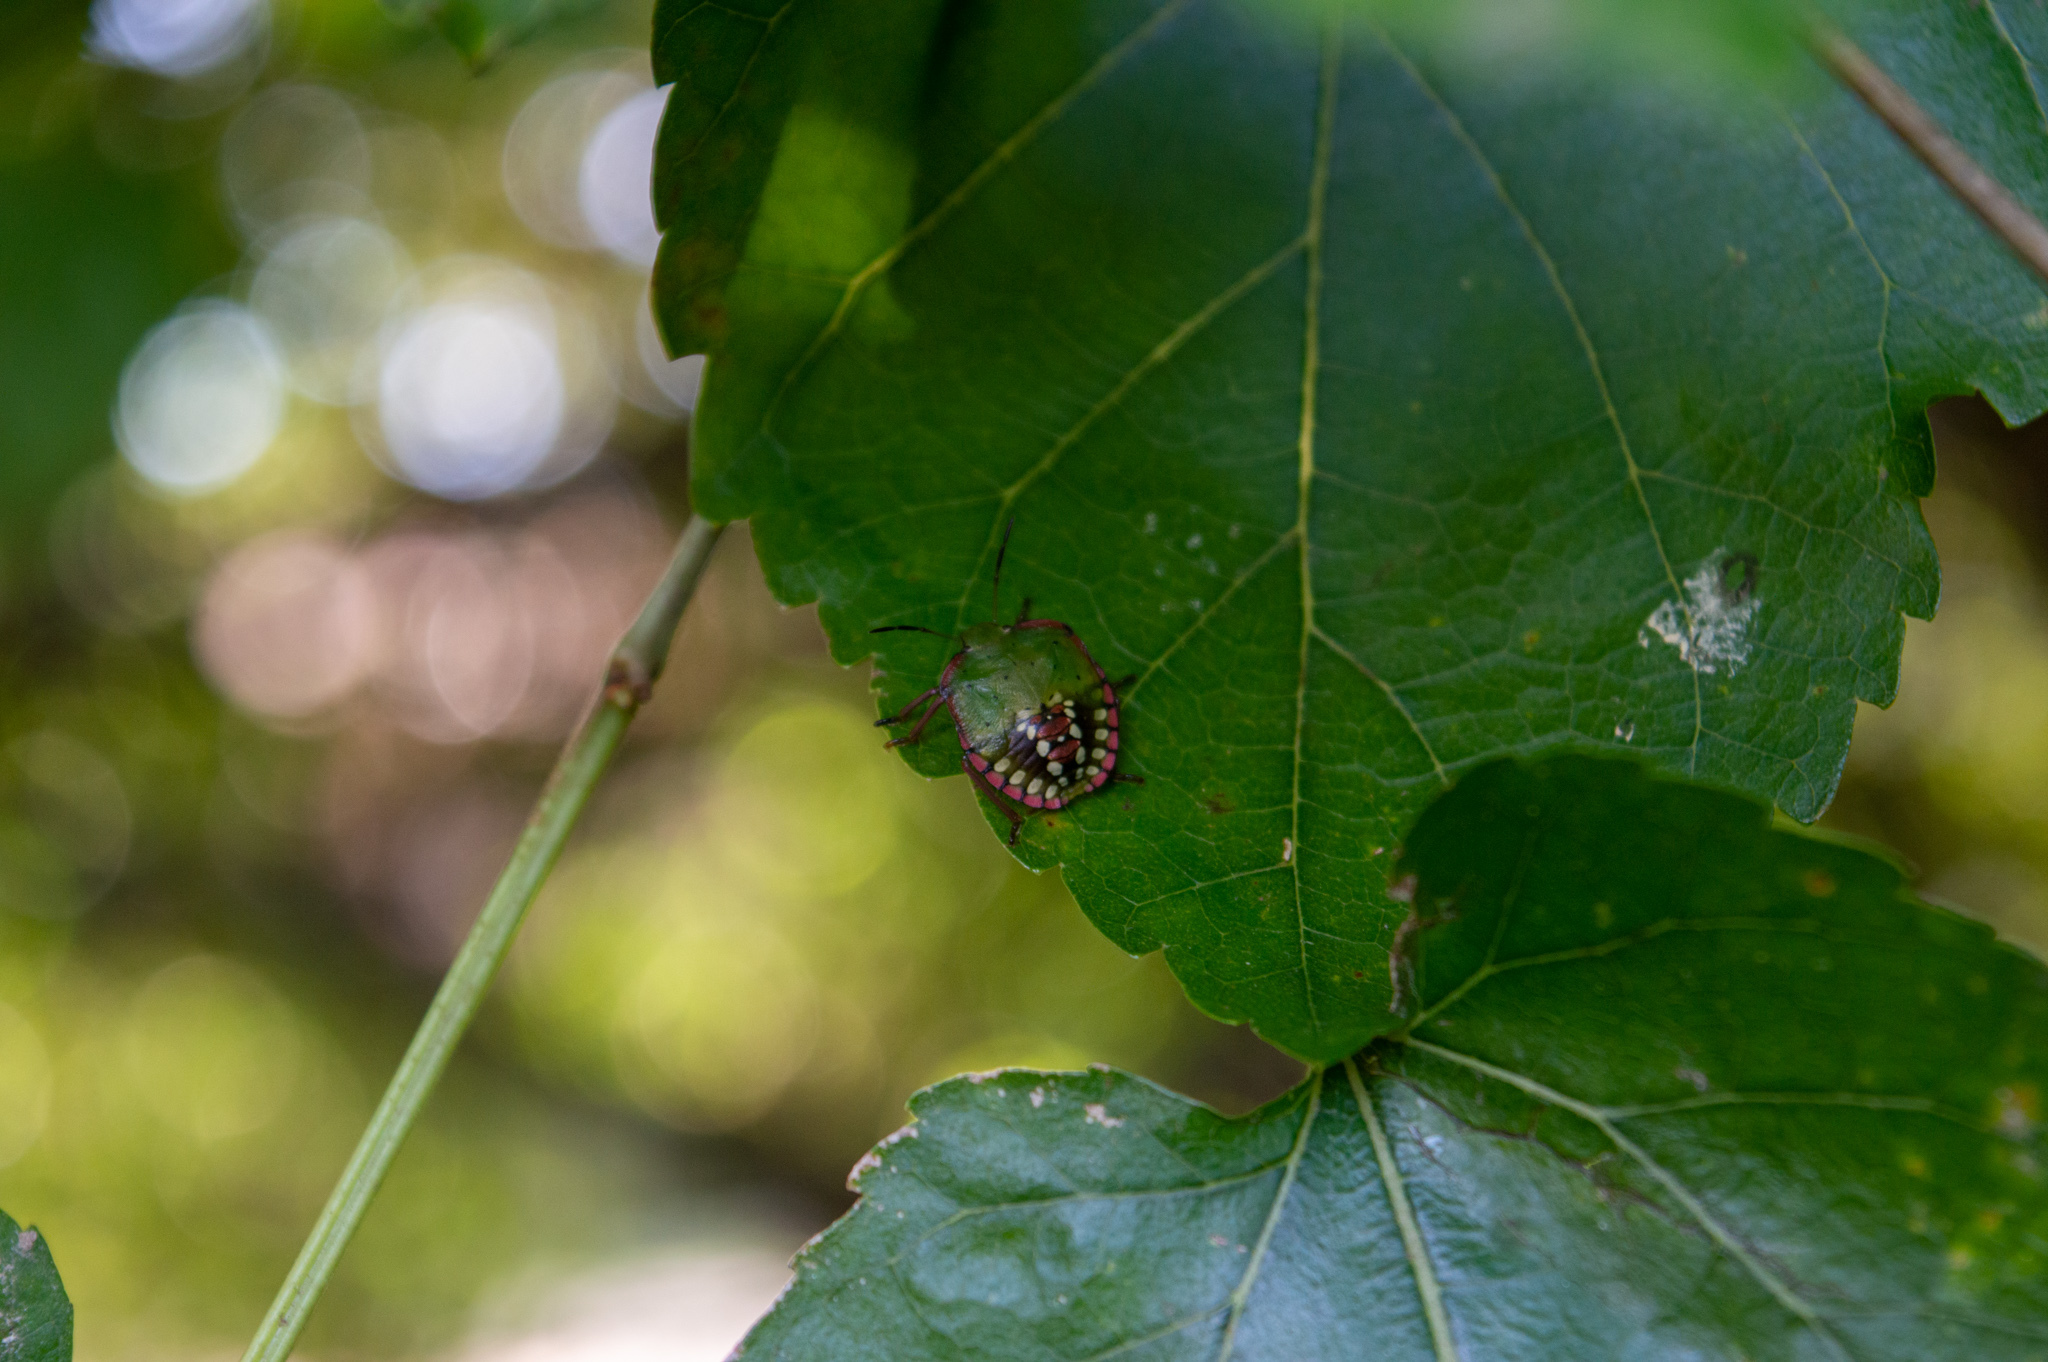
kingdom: Animalia
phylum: Arthropoda
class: Insecta
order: Hemiptera
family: Pentatomidae
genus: Nezara
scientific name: Nezara viridula
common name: Southern green stink bug
